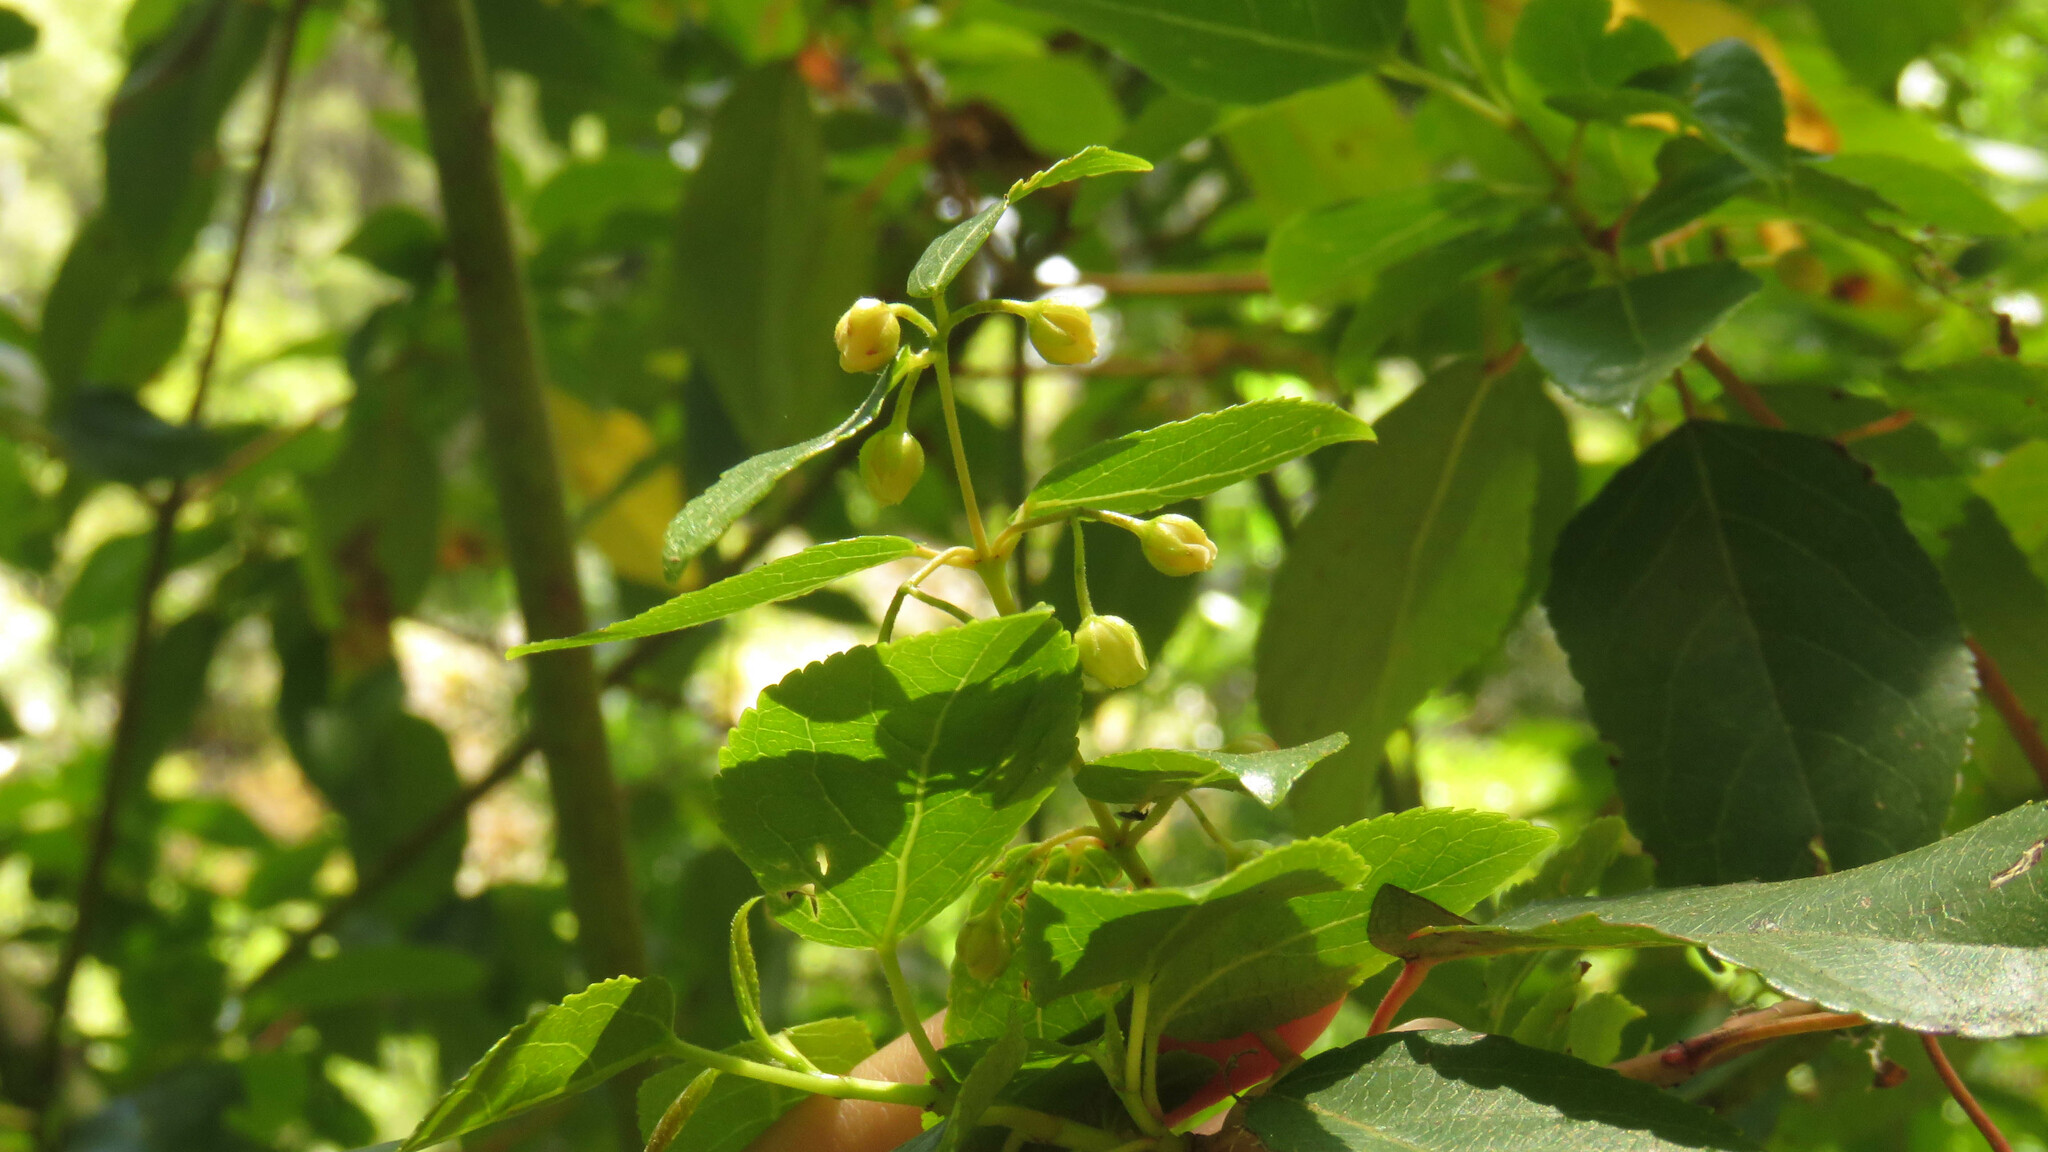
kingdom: Plantae
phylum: Tracheophyta
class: Magnoliopsida
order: Oxalidales
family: Elaeocarpaceae
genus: Aristotelia
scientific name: Aristotelia chilensis
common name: Maquei
